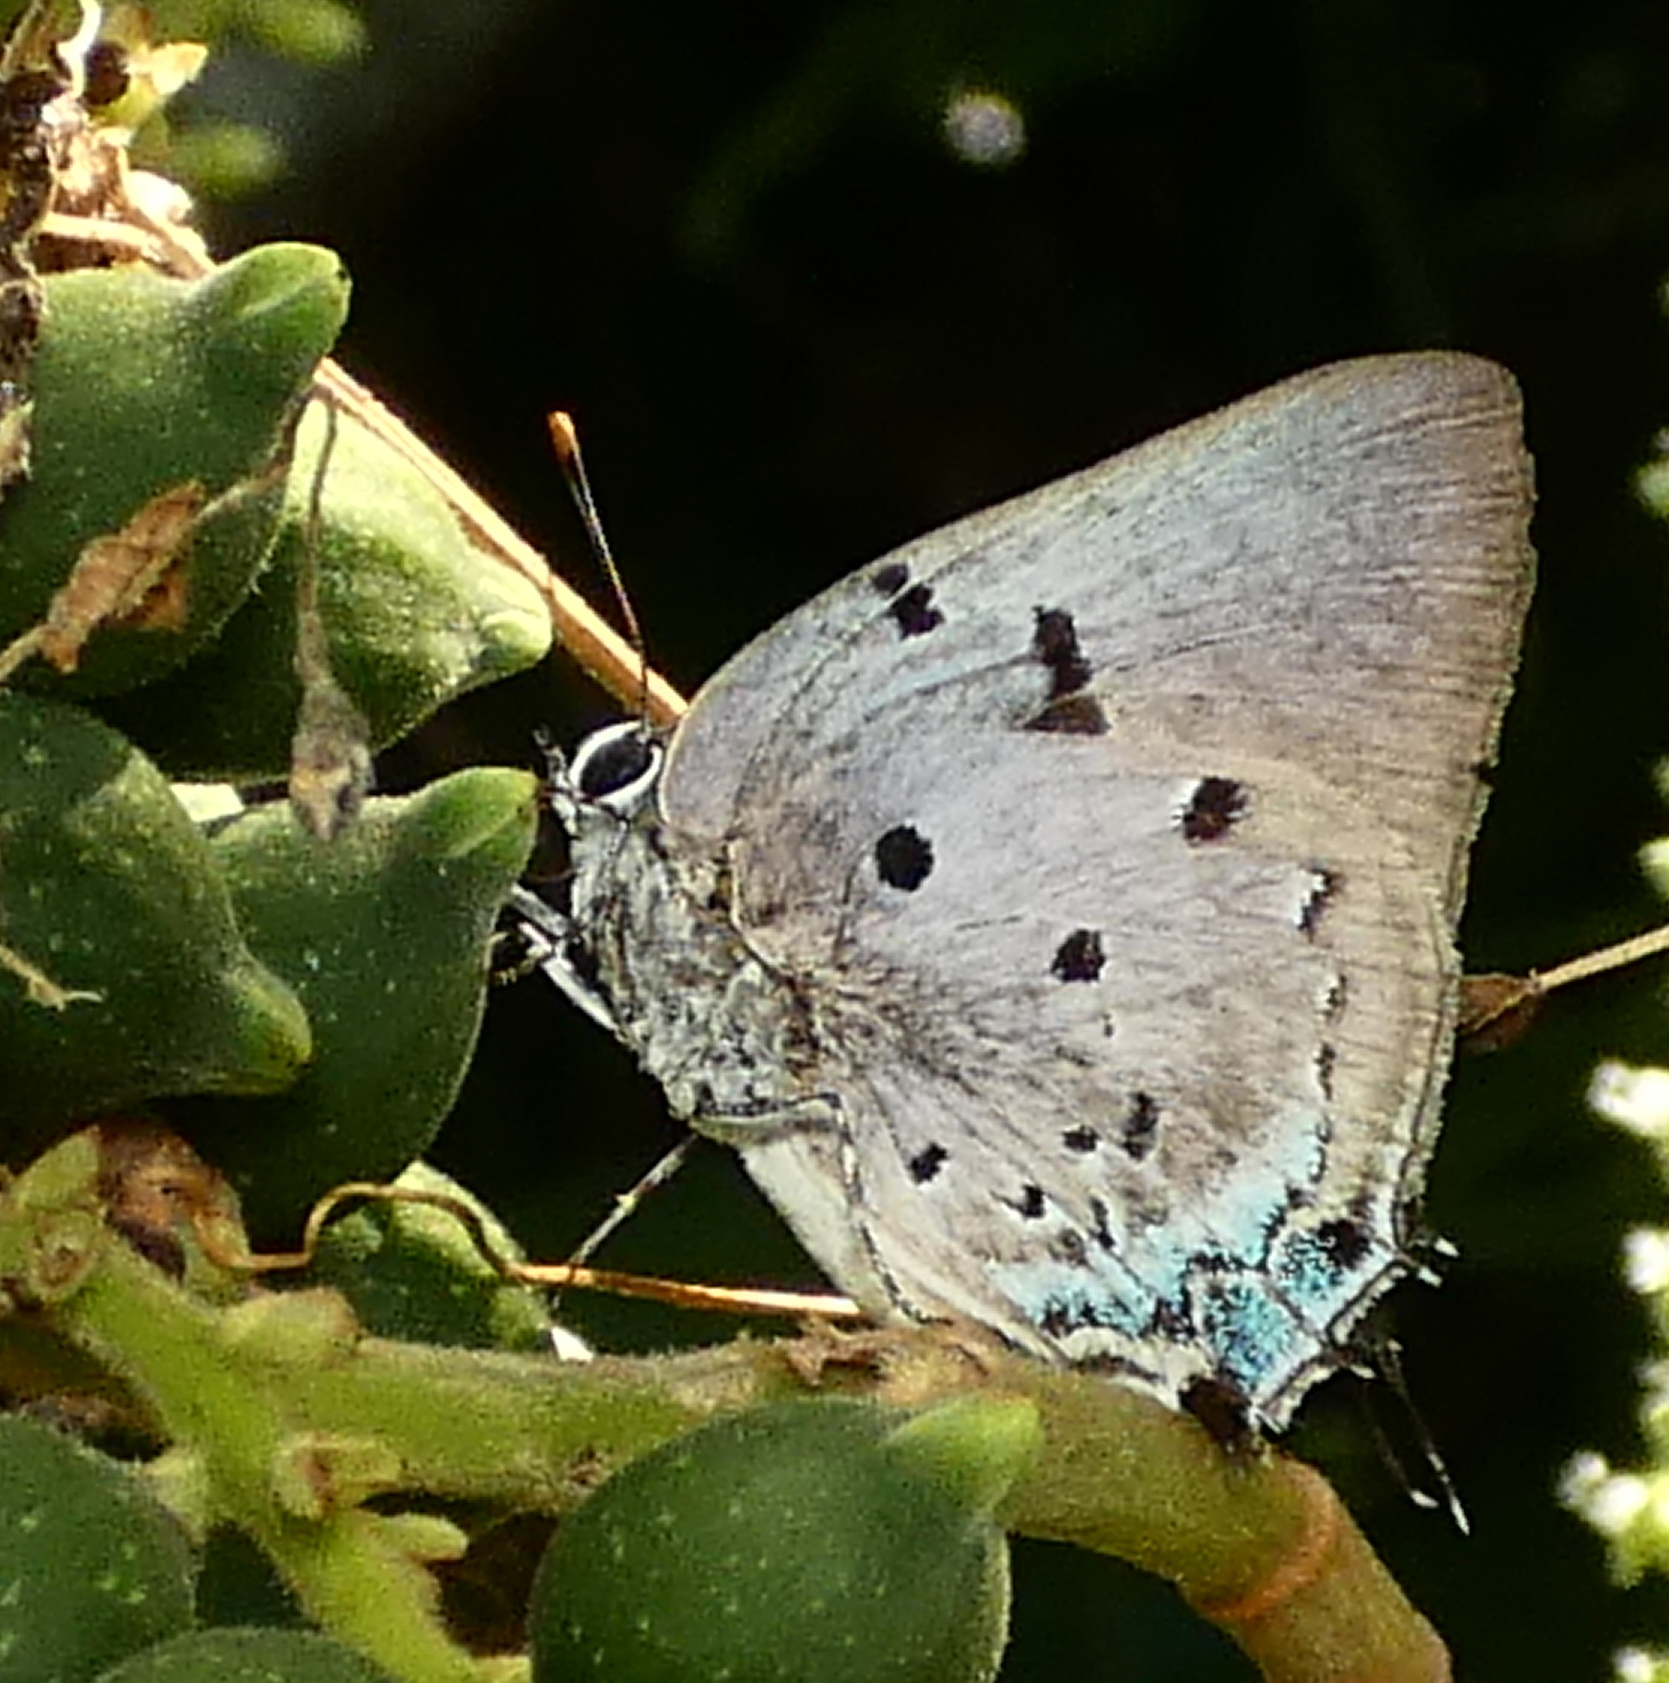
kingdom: Animalia
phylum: Arthropoda
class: Insecta
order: Lepidoptera
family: Lycaenidae
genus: Oenomaus
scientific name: Oenomaus ortygnus
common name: Aquamarine hairstreak
